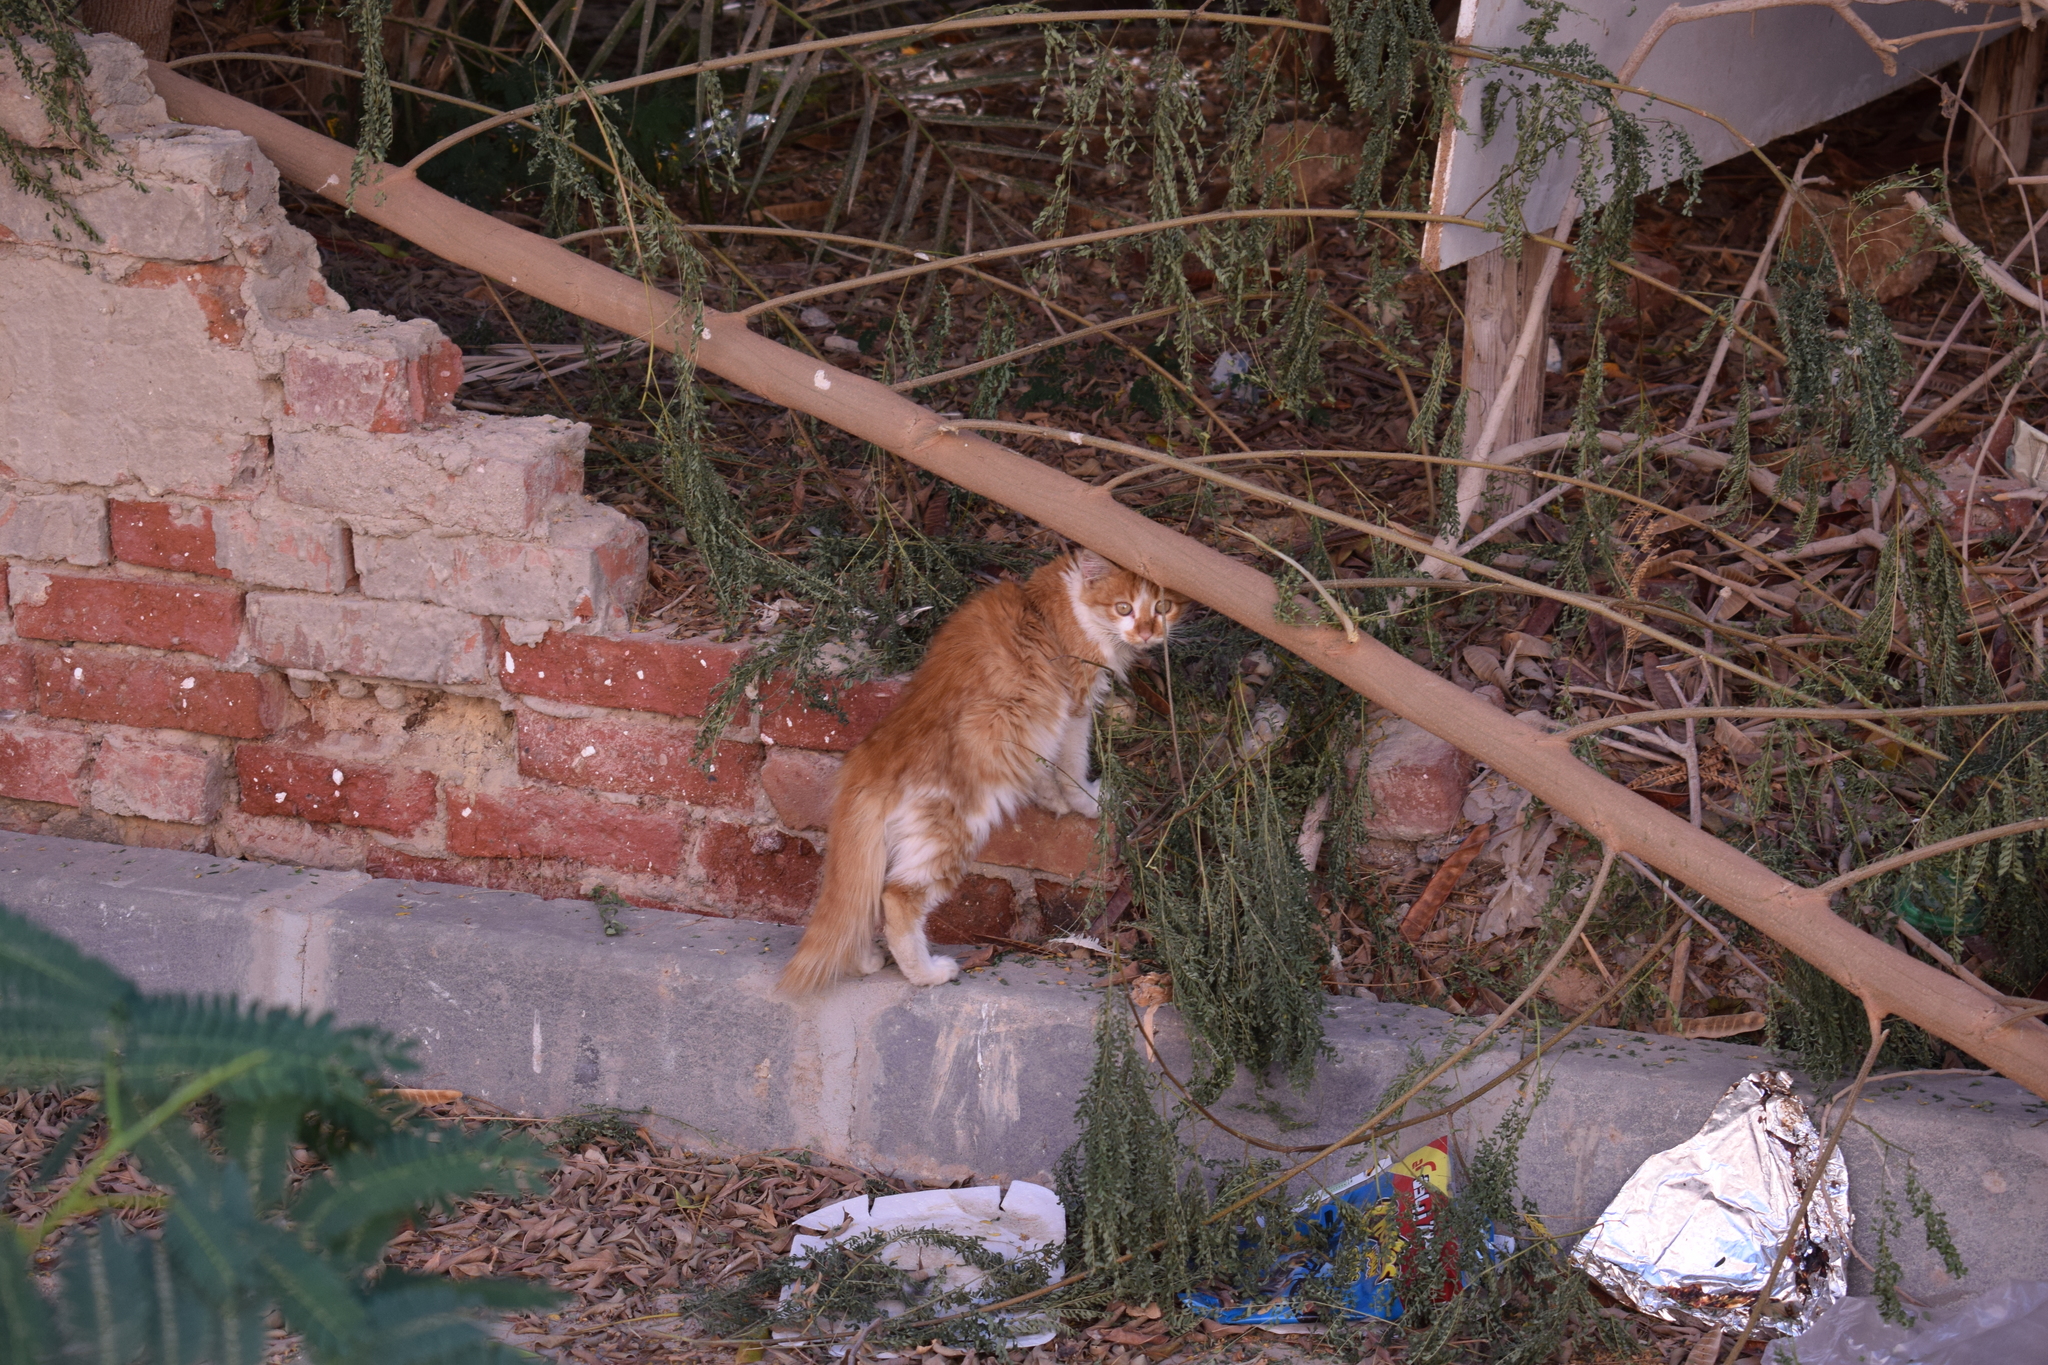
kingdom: Animalia
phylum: Chordata
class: Mammalia
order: Carnivora
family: Felidae
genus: Felis
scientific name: Felis catus
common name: Domestic cat
